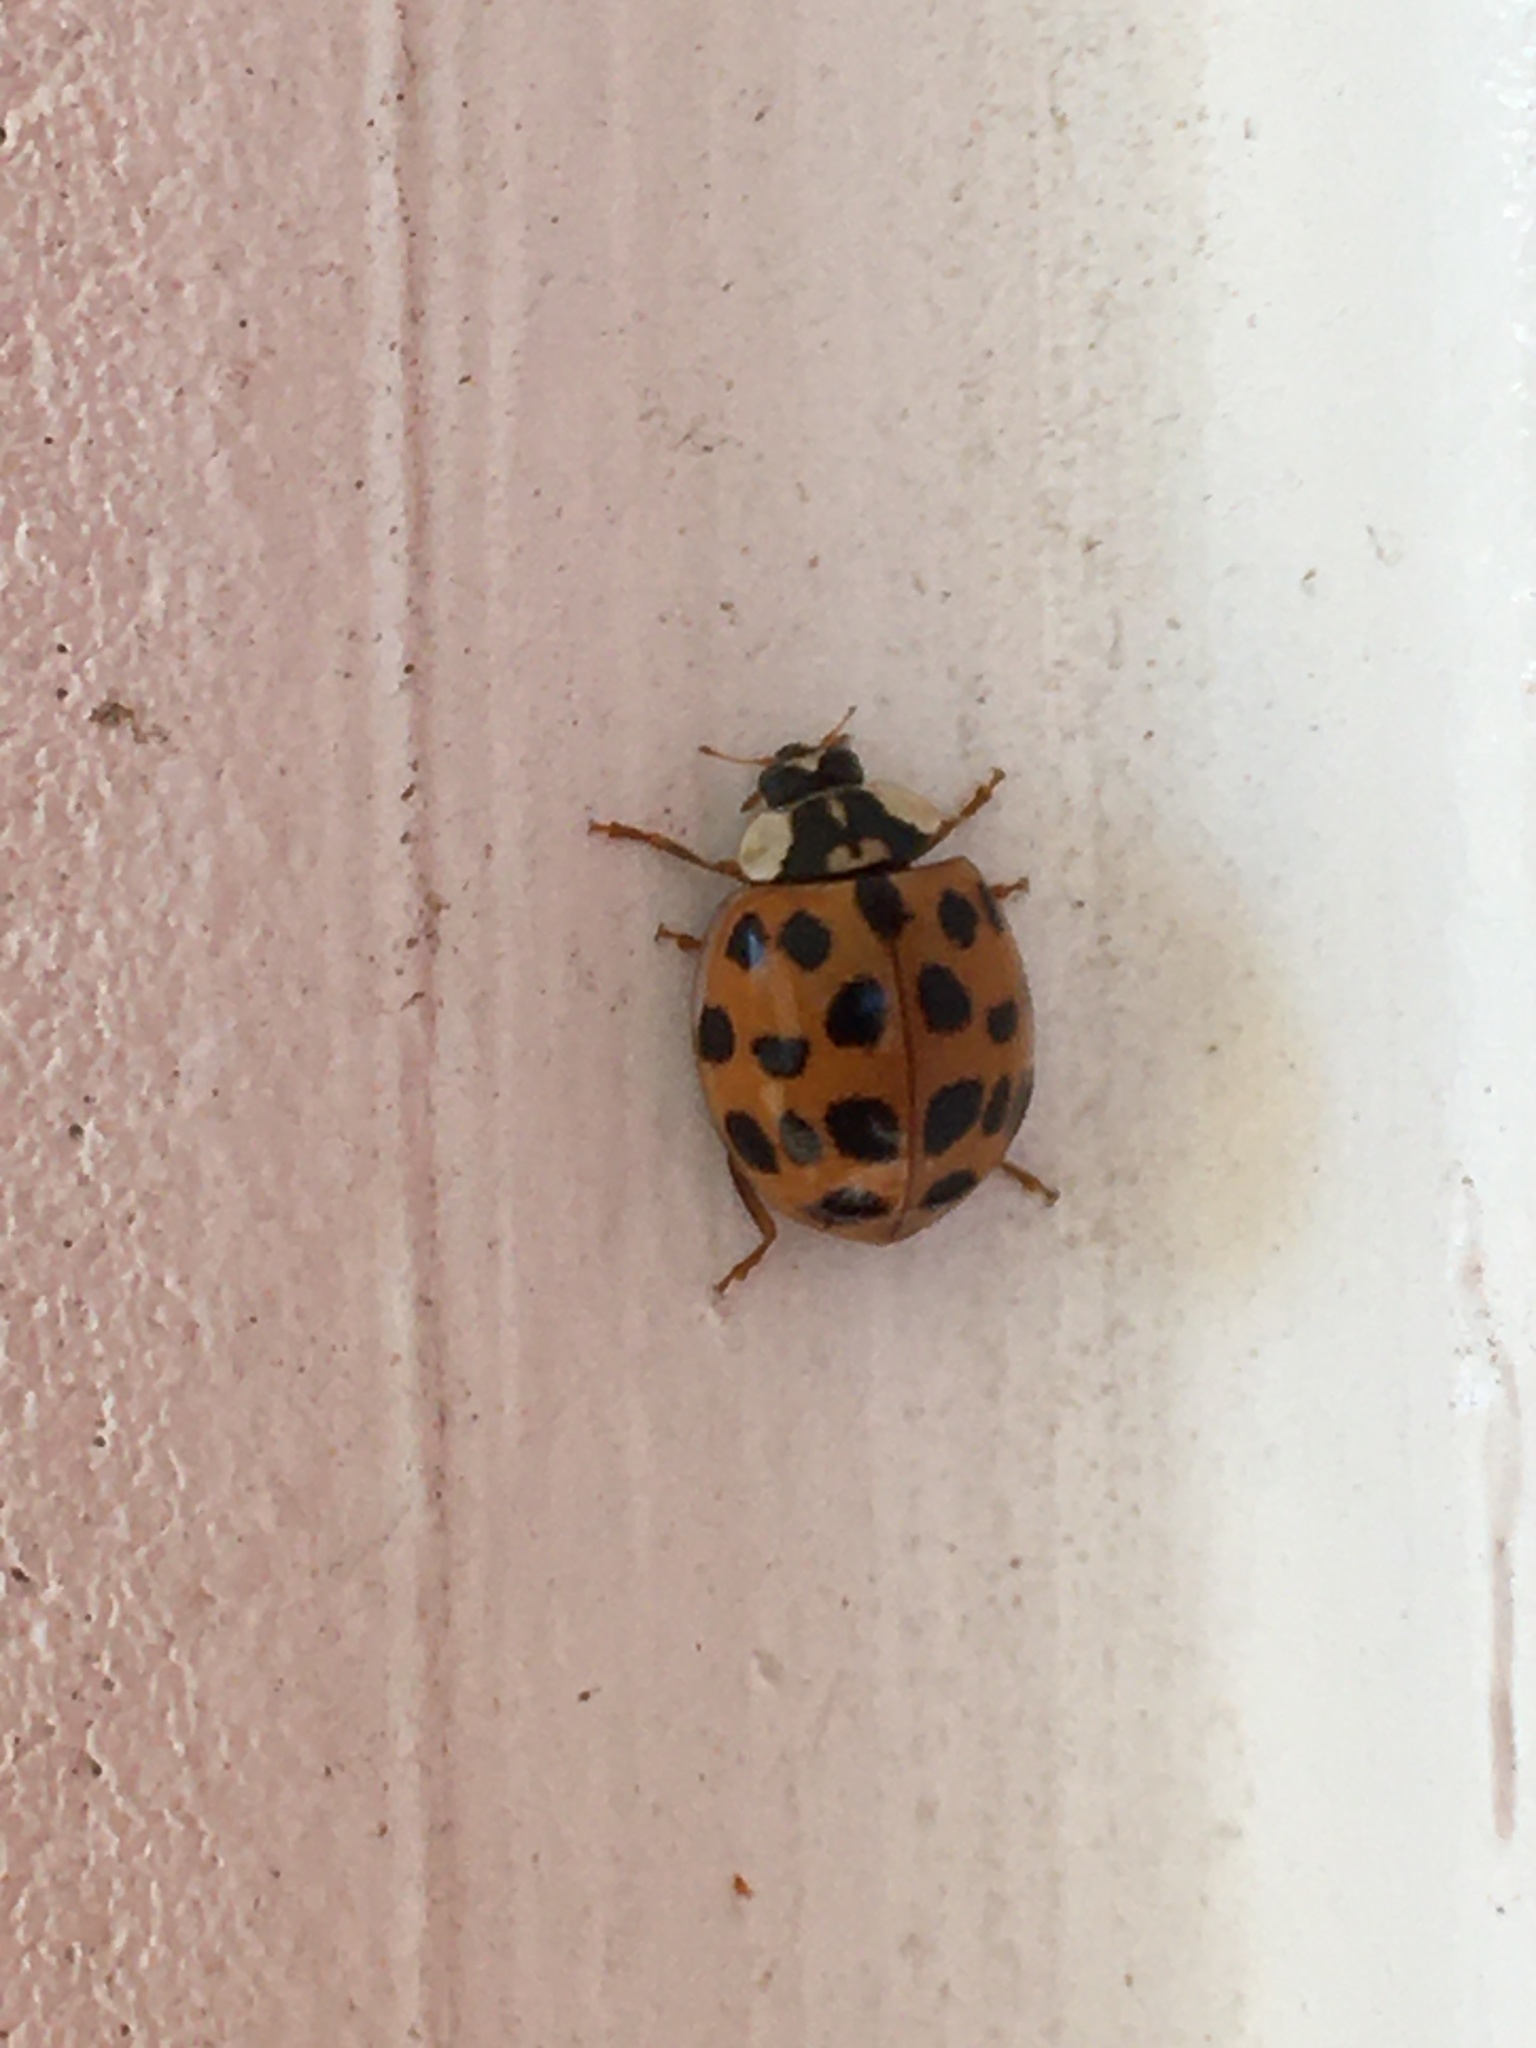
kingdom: Animalia
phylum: Arthropoda
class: Insecta
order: Coleoptera
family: Coccinellidae
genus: Harmonia
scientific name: Harmonia axyridis
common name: Harlequin ladybird
